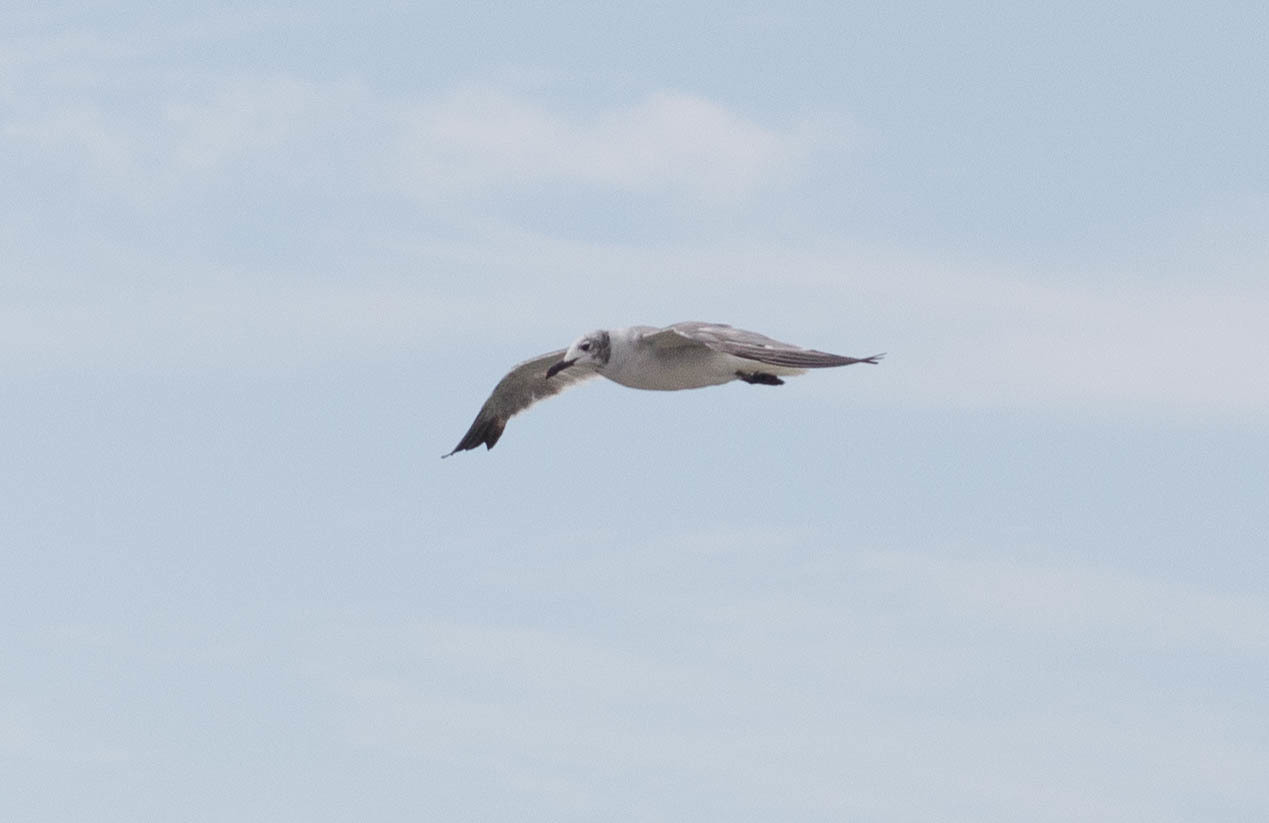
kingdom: Animalia
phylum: Chordata
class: Aves
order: Charadriiformes
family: Laridae
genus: Leucophaeus
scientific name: Leucophaeus atricilla
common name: Laughing gull
